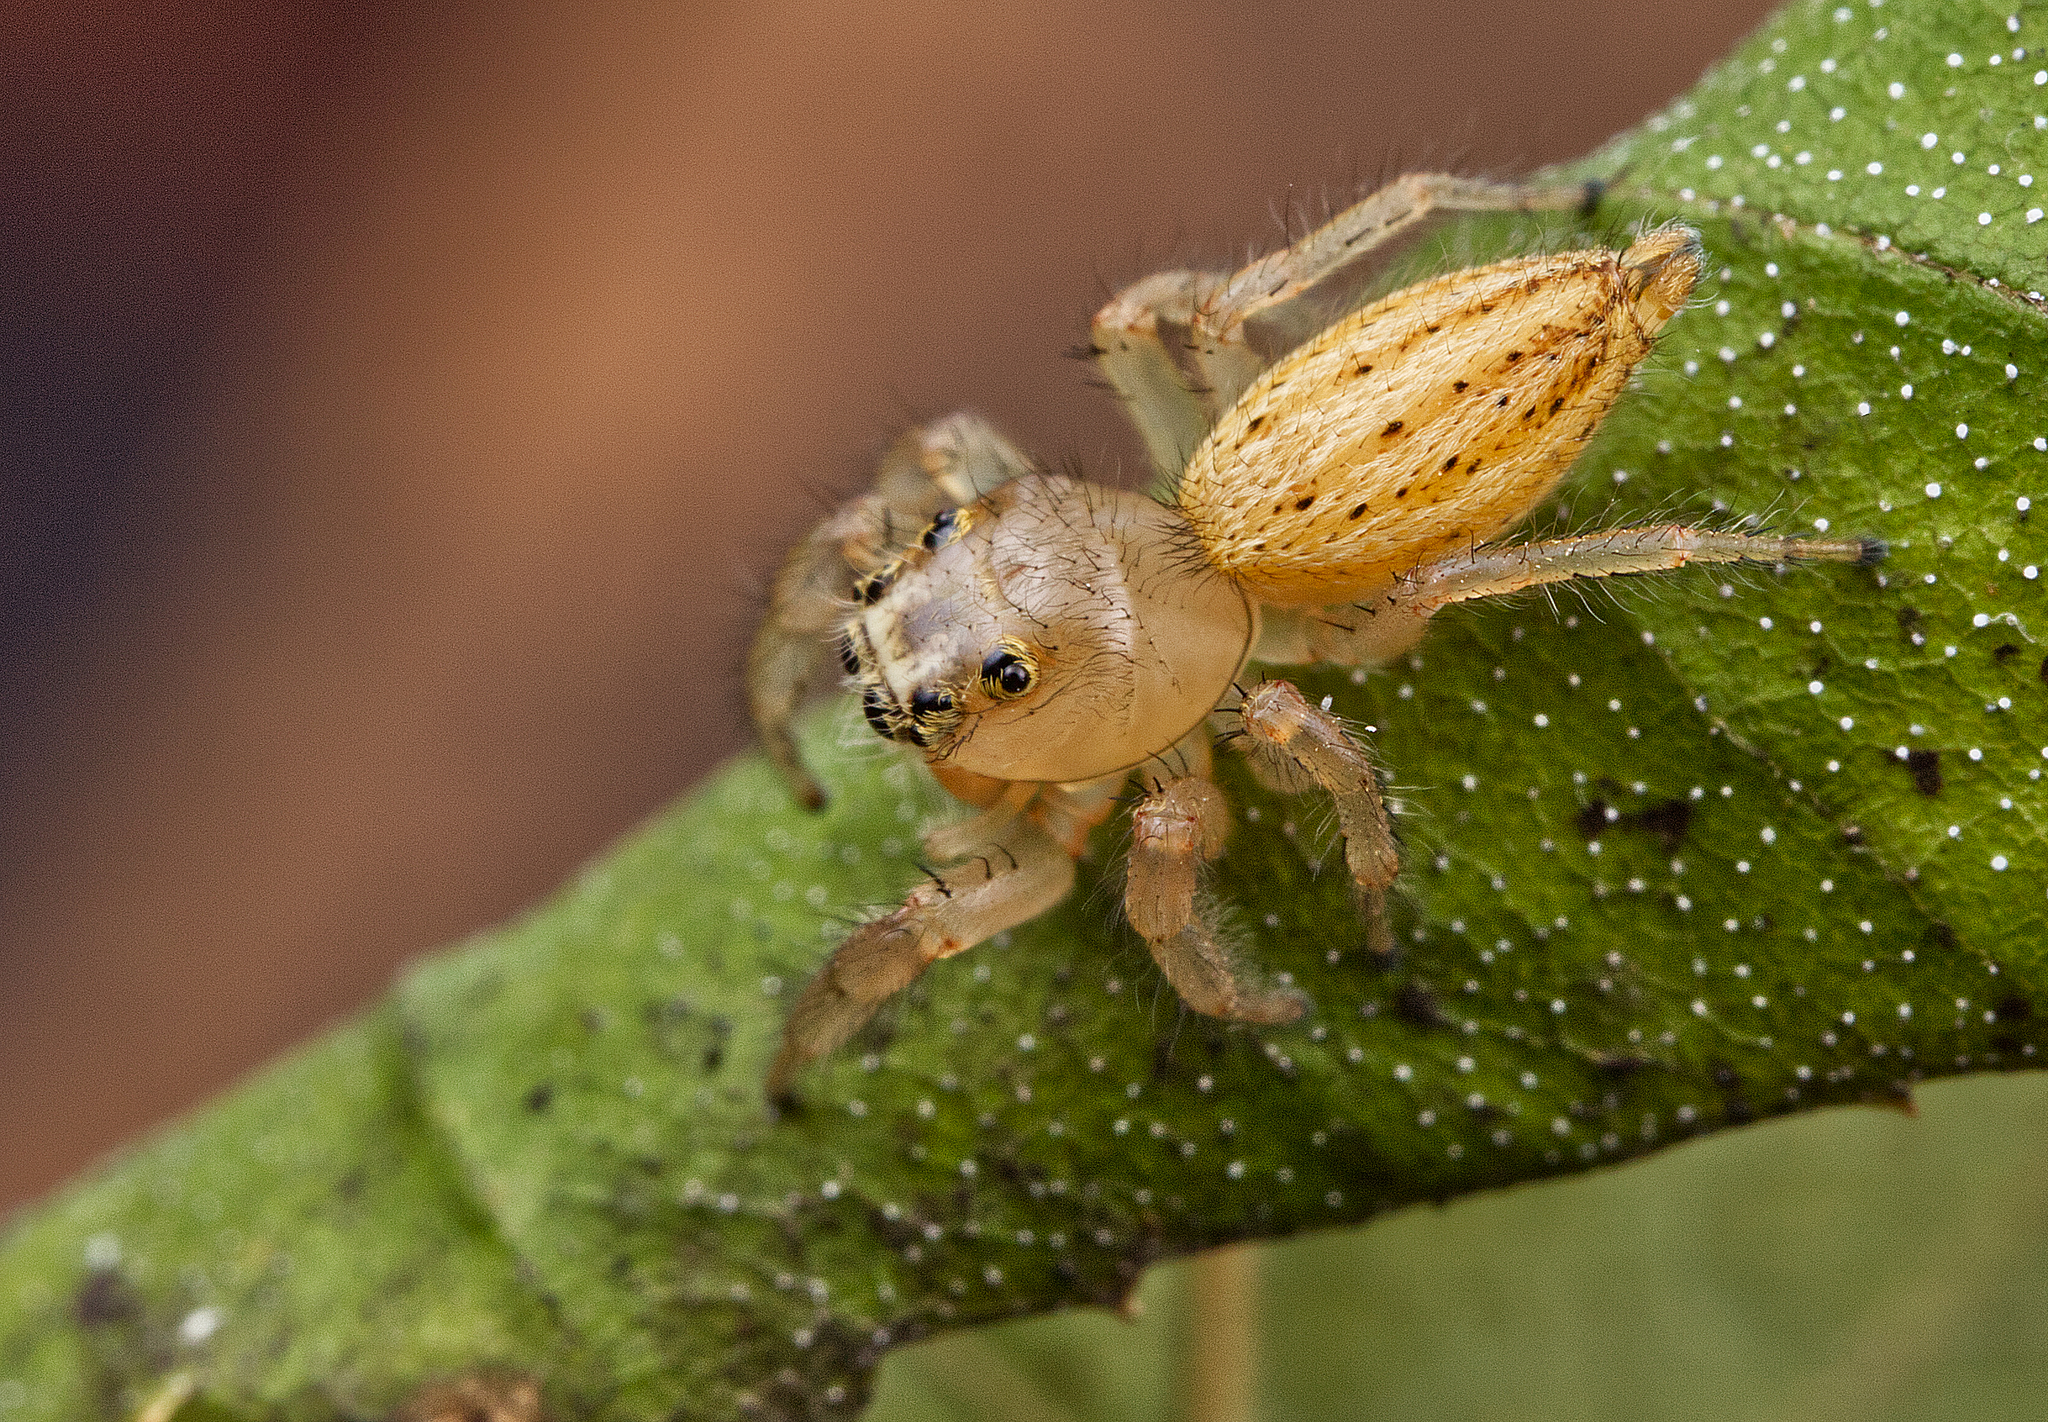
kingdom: Animalia
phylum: Arthropoda
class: Arachnida
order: Araneae
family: Salticidae
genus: Colonus
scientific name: Colonus puerperus
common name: Jumping spiders
